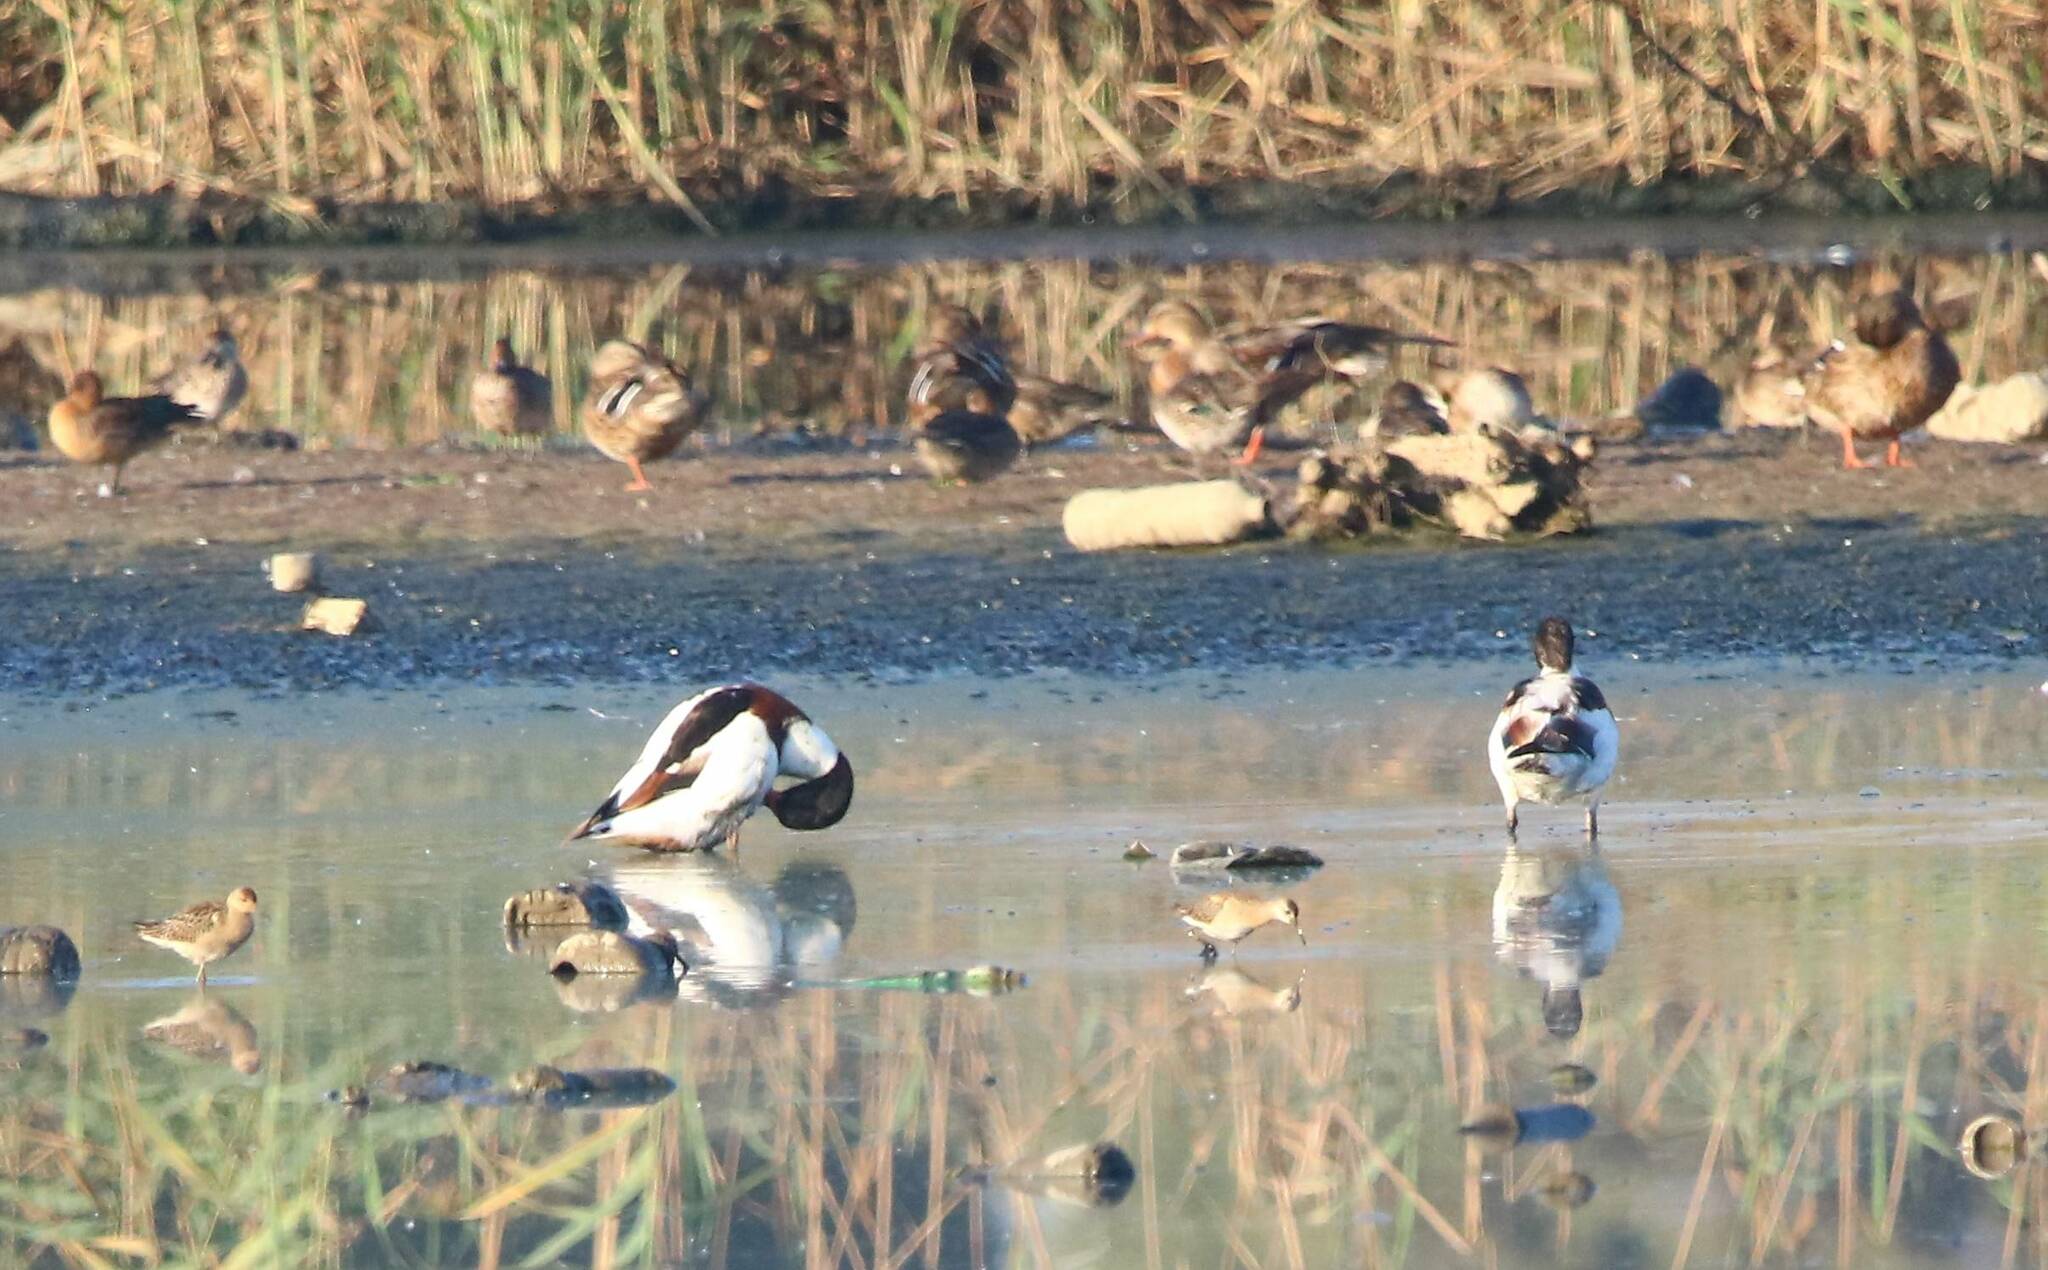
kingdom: Animalia
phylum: Chordata
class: Aves
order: Anseriformes
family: Anatidae
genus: Tadorna
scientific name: Tadorna tadorna
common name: Common shelduck
